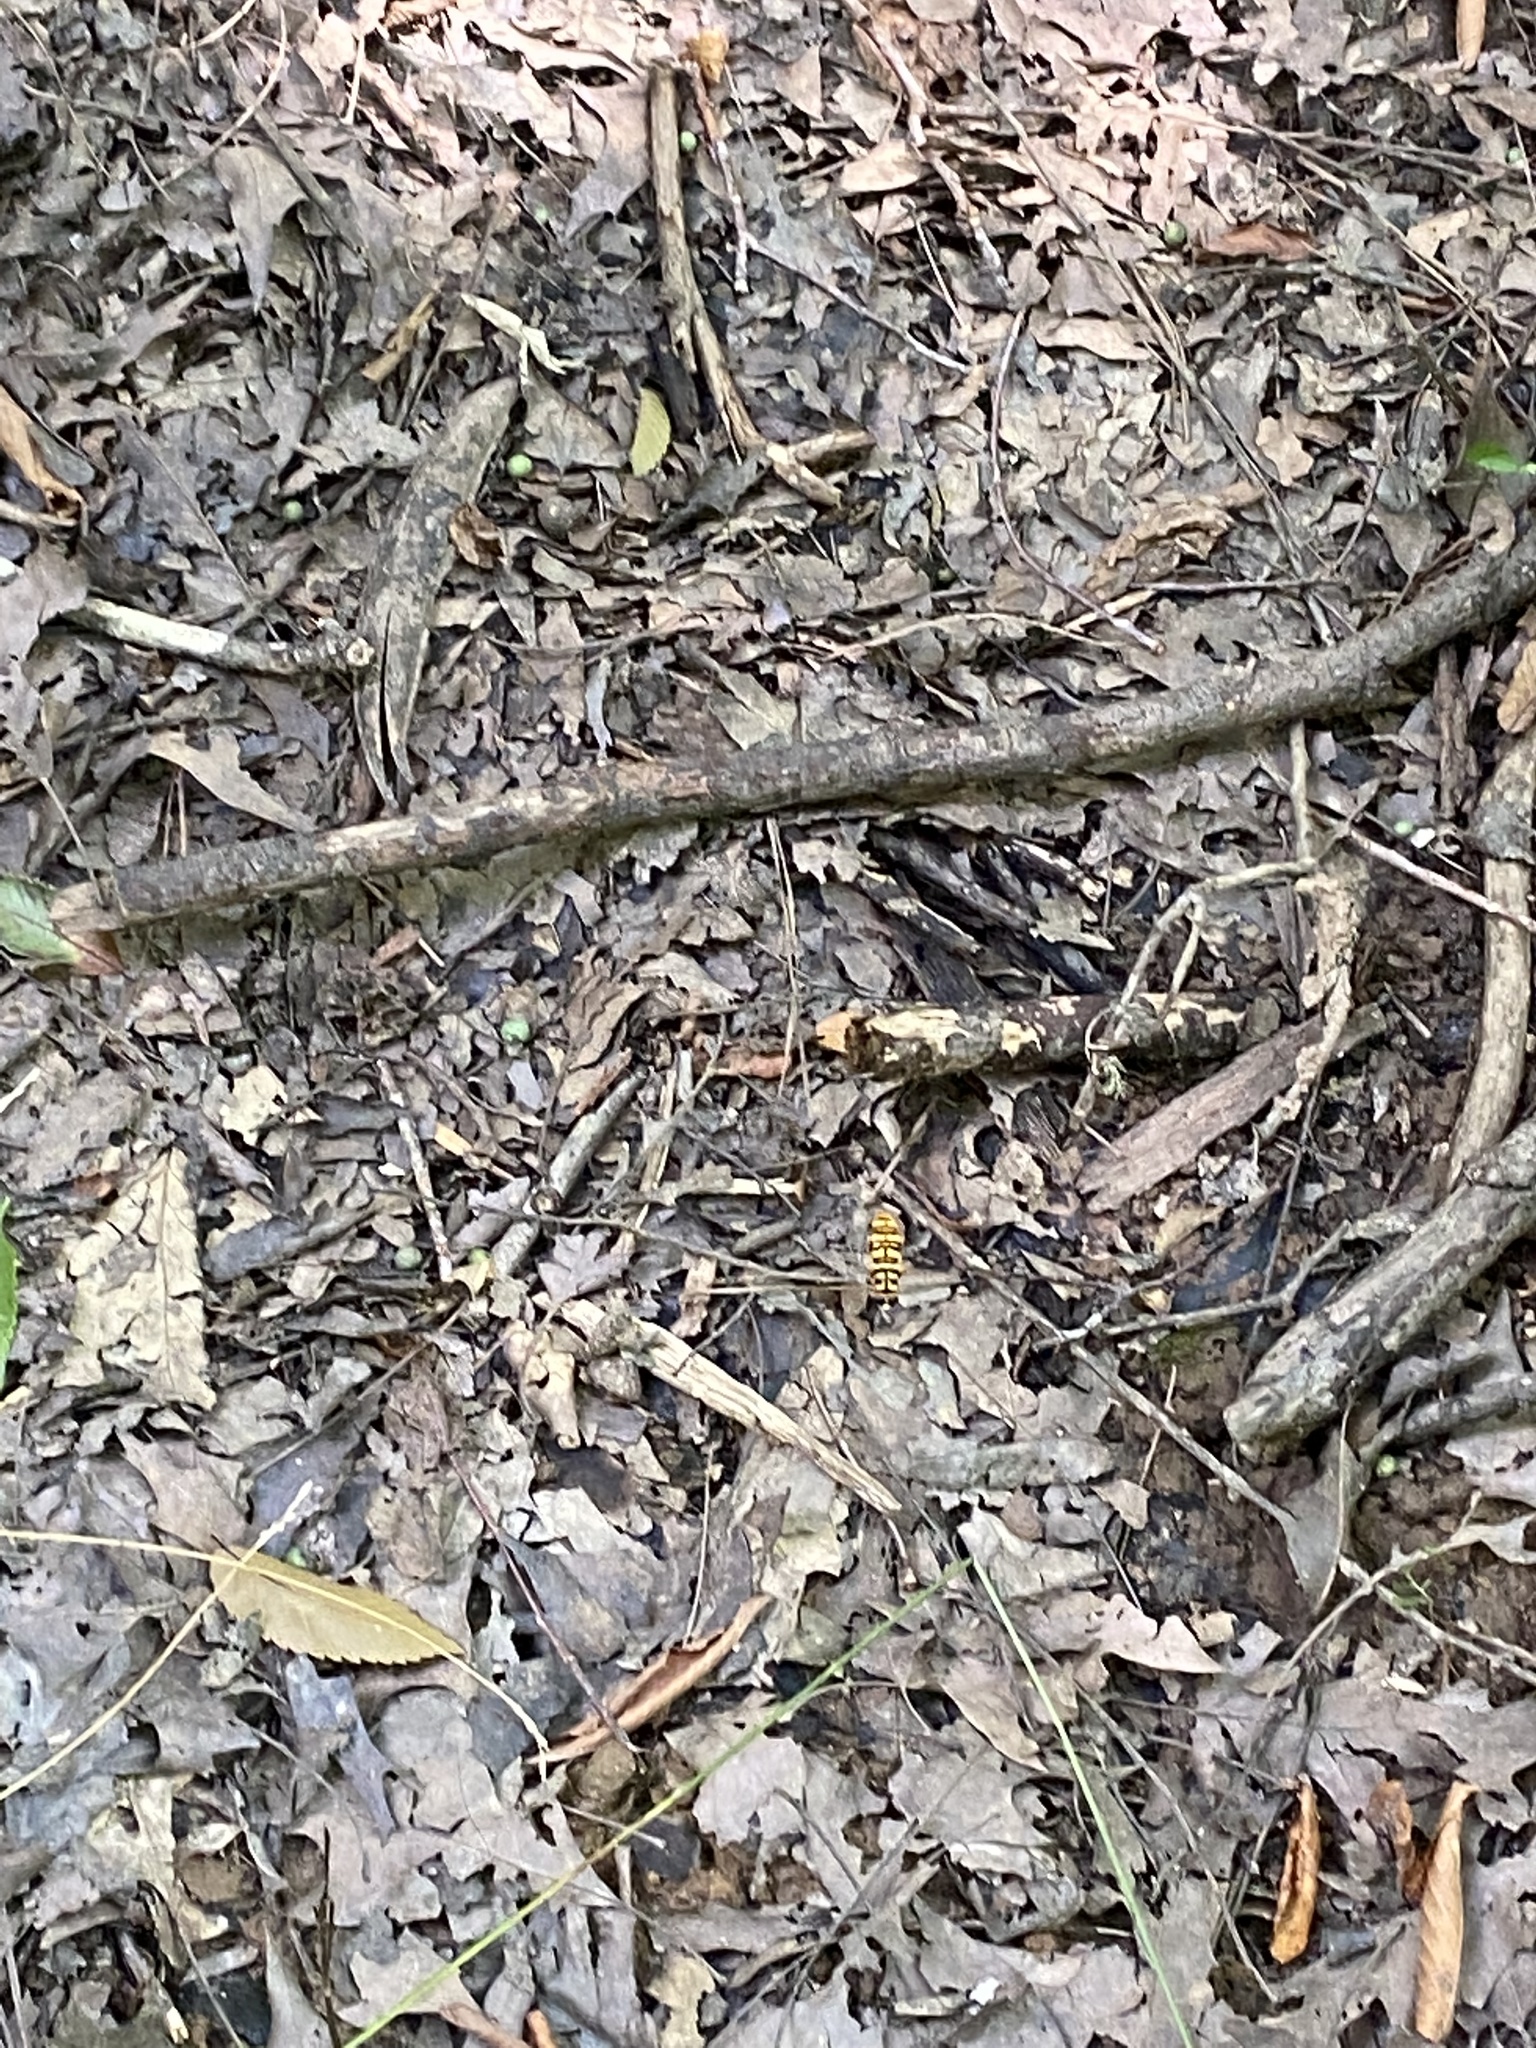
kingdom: Animalia
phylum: Arthropoda
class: Insecta
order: Diptera
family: Syrphidae
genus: Milesia
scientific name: Milesia virginiensis
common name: Virginia giant
